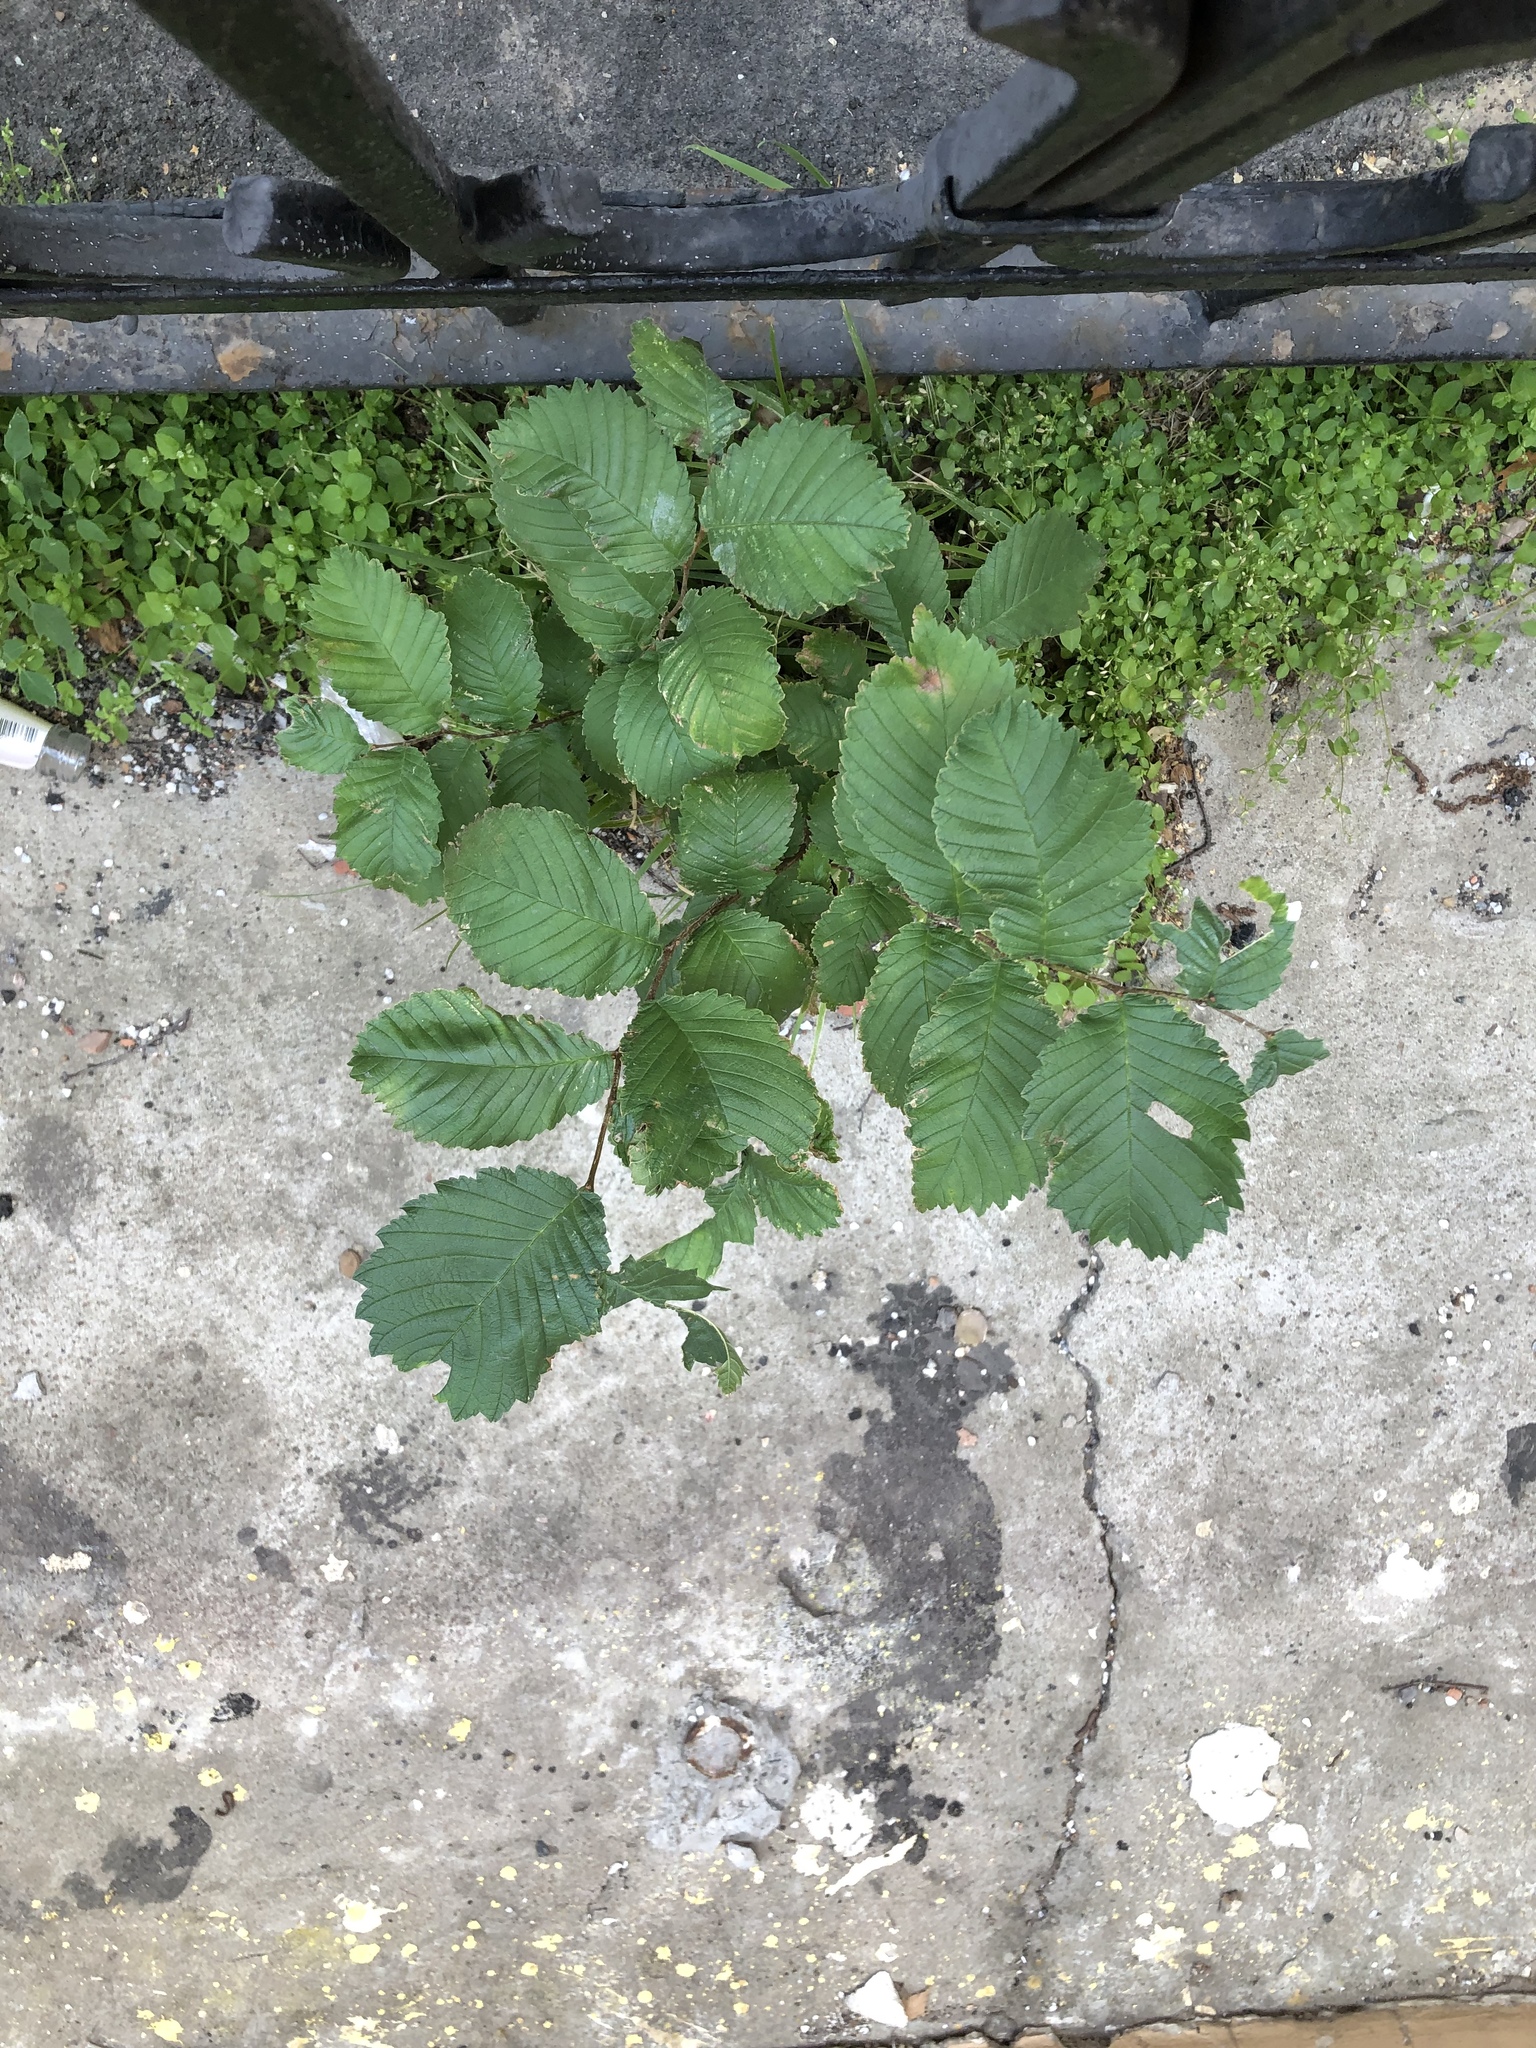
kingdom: Plantae
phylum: Tracheophyta
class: Magnoliopsida
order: Rosales
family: Ulmaceae
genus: Ulmus
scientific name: Ulmus glabra
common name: Wych elm
